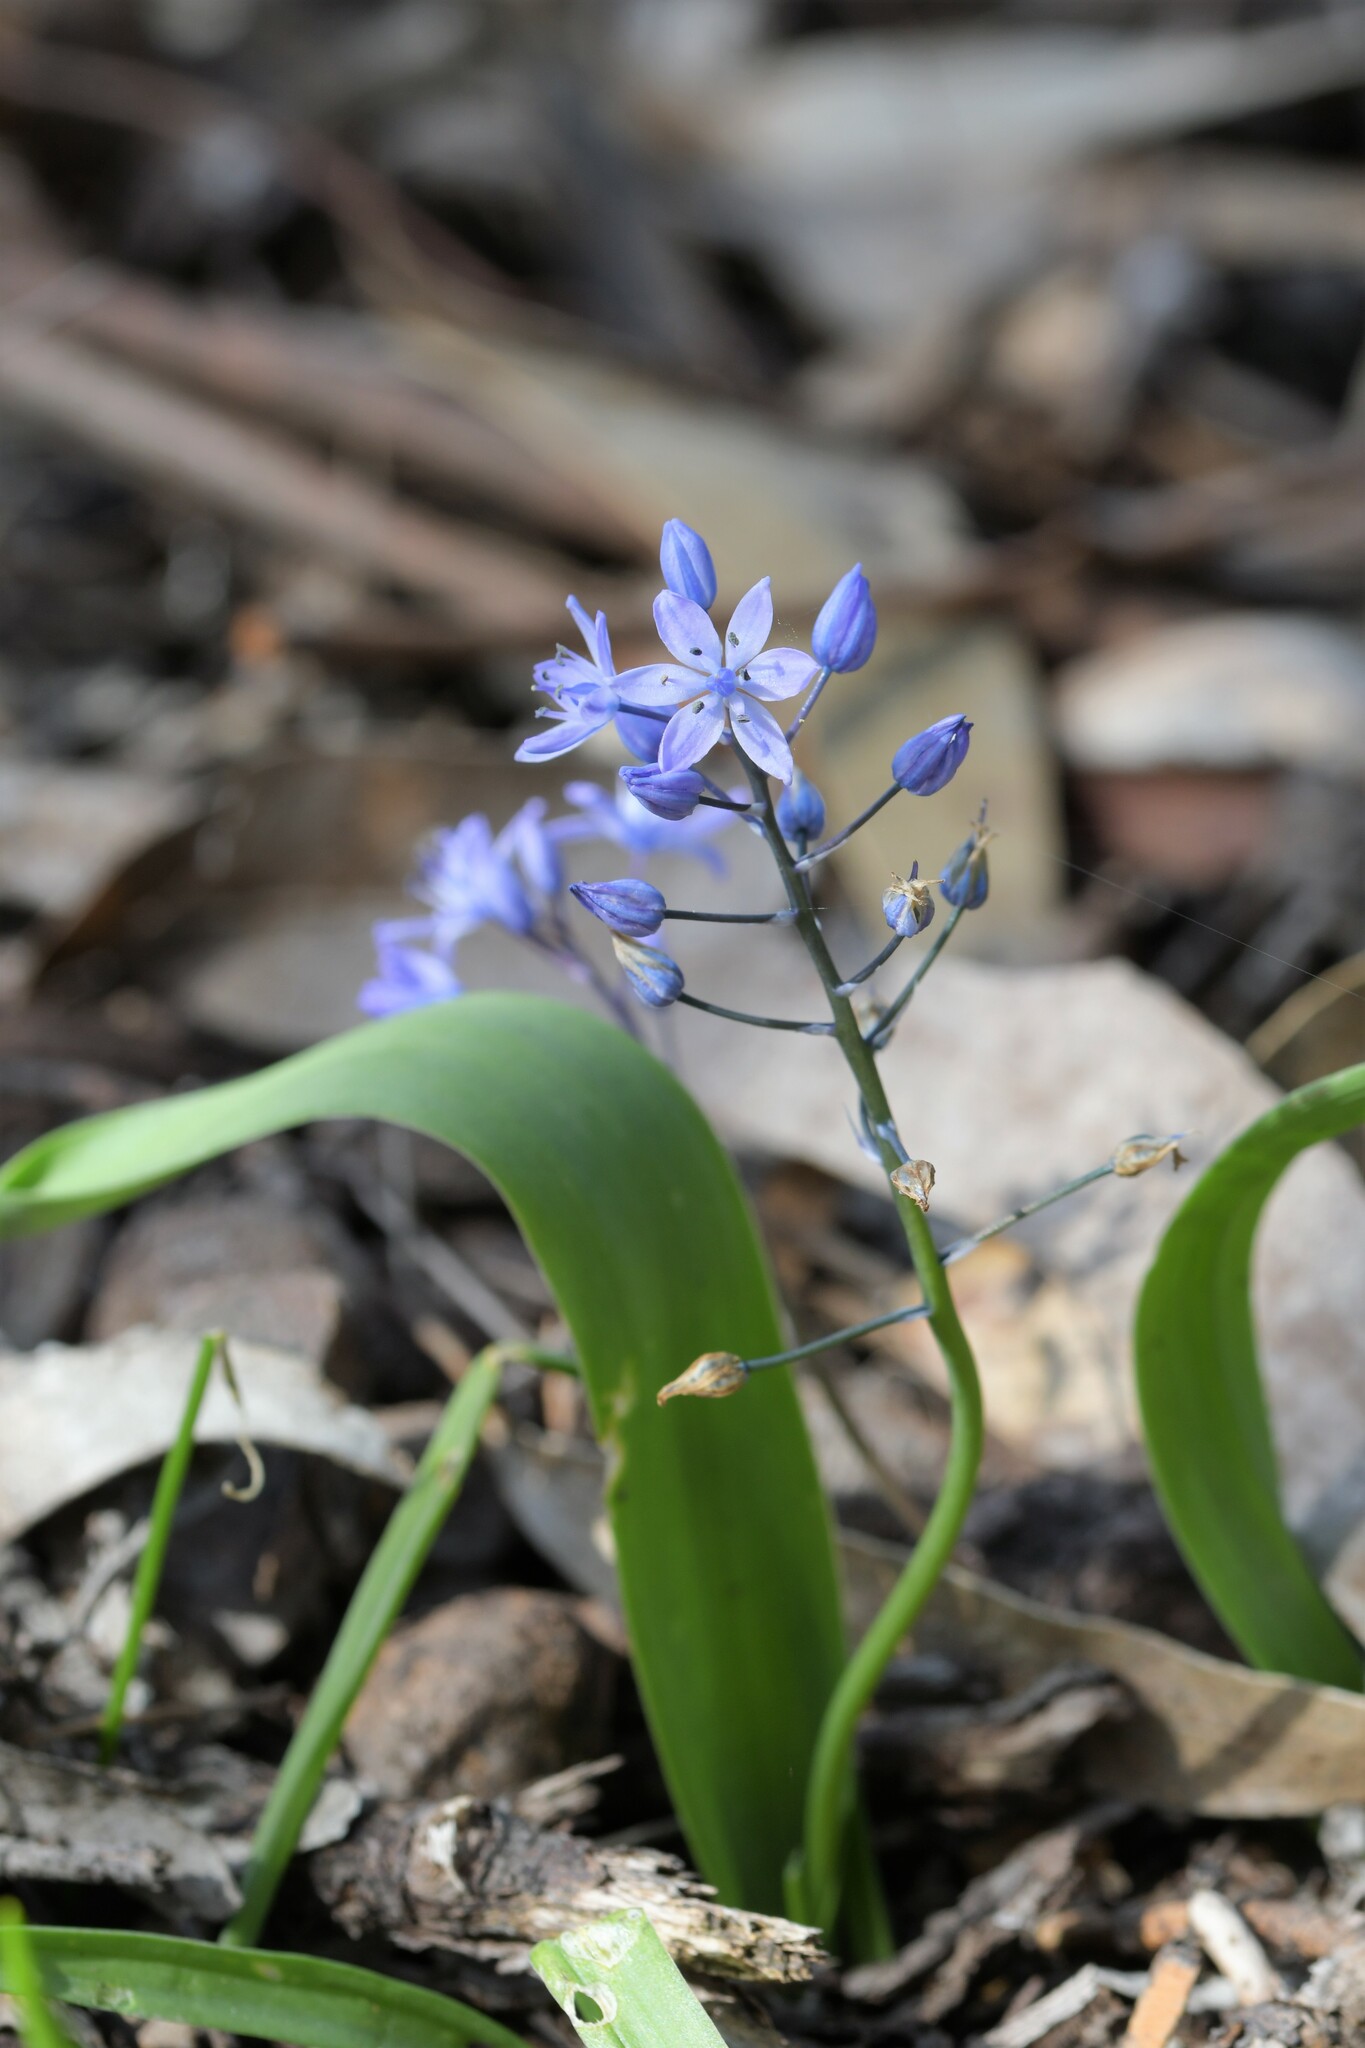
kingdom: Plantae
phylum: Tracheophyta
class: Liliopsida
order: Asparagales
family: Asparagaceae
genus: Scilla
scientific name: Scilla monophyllos
